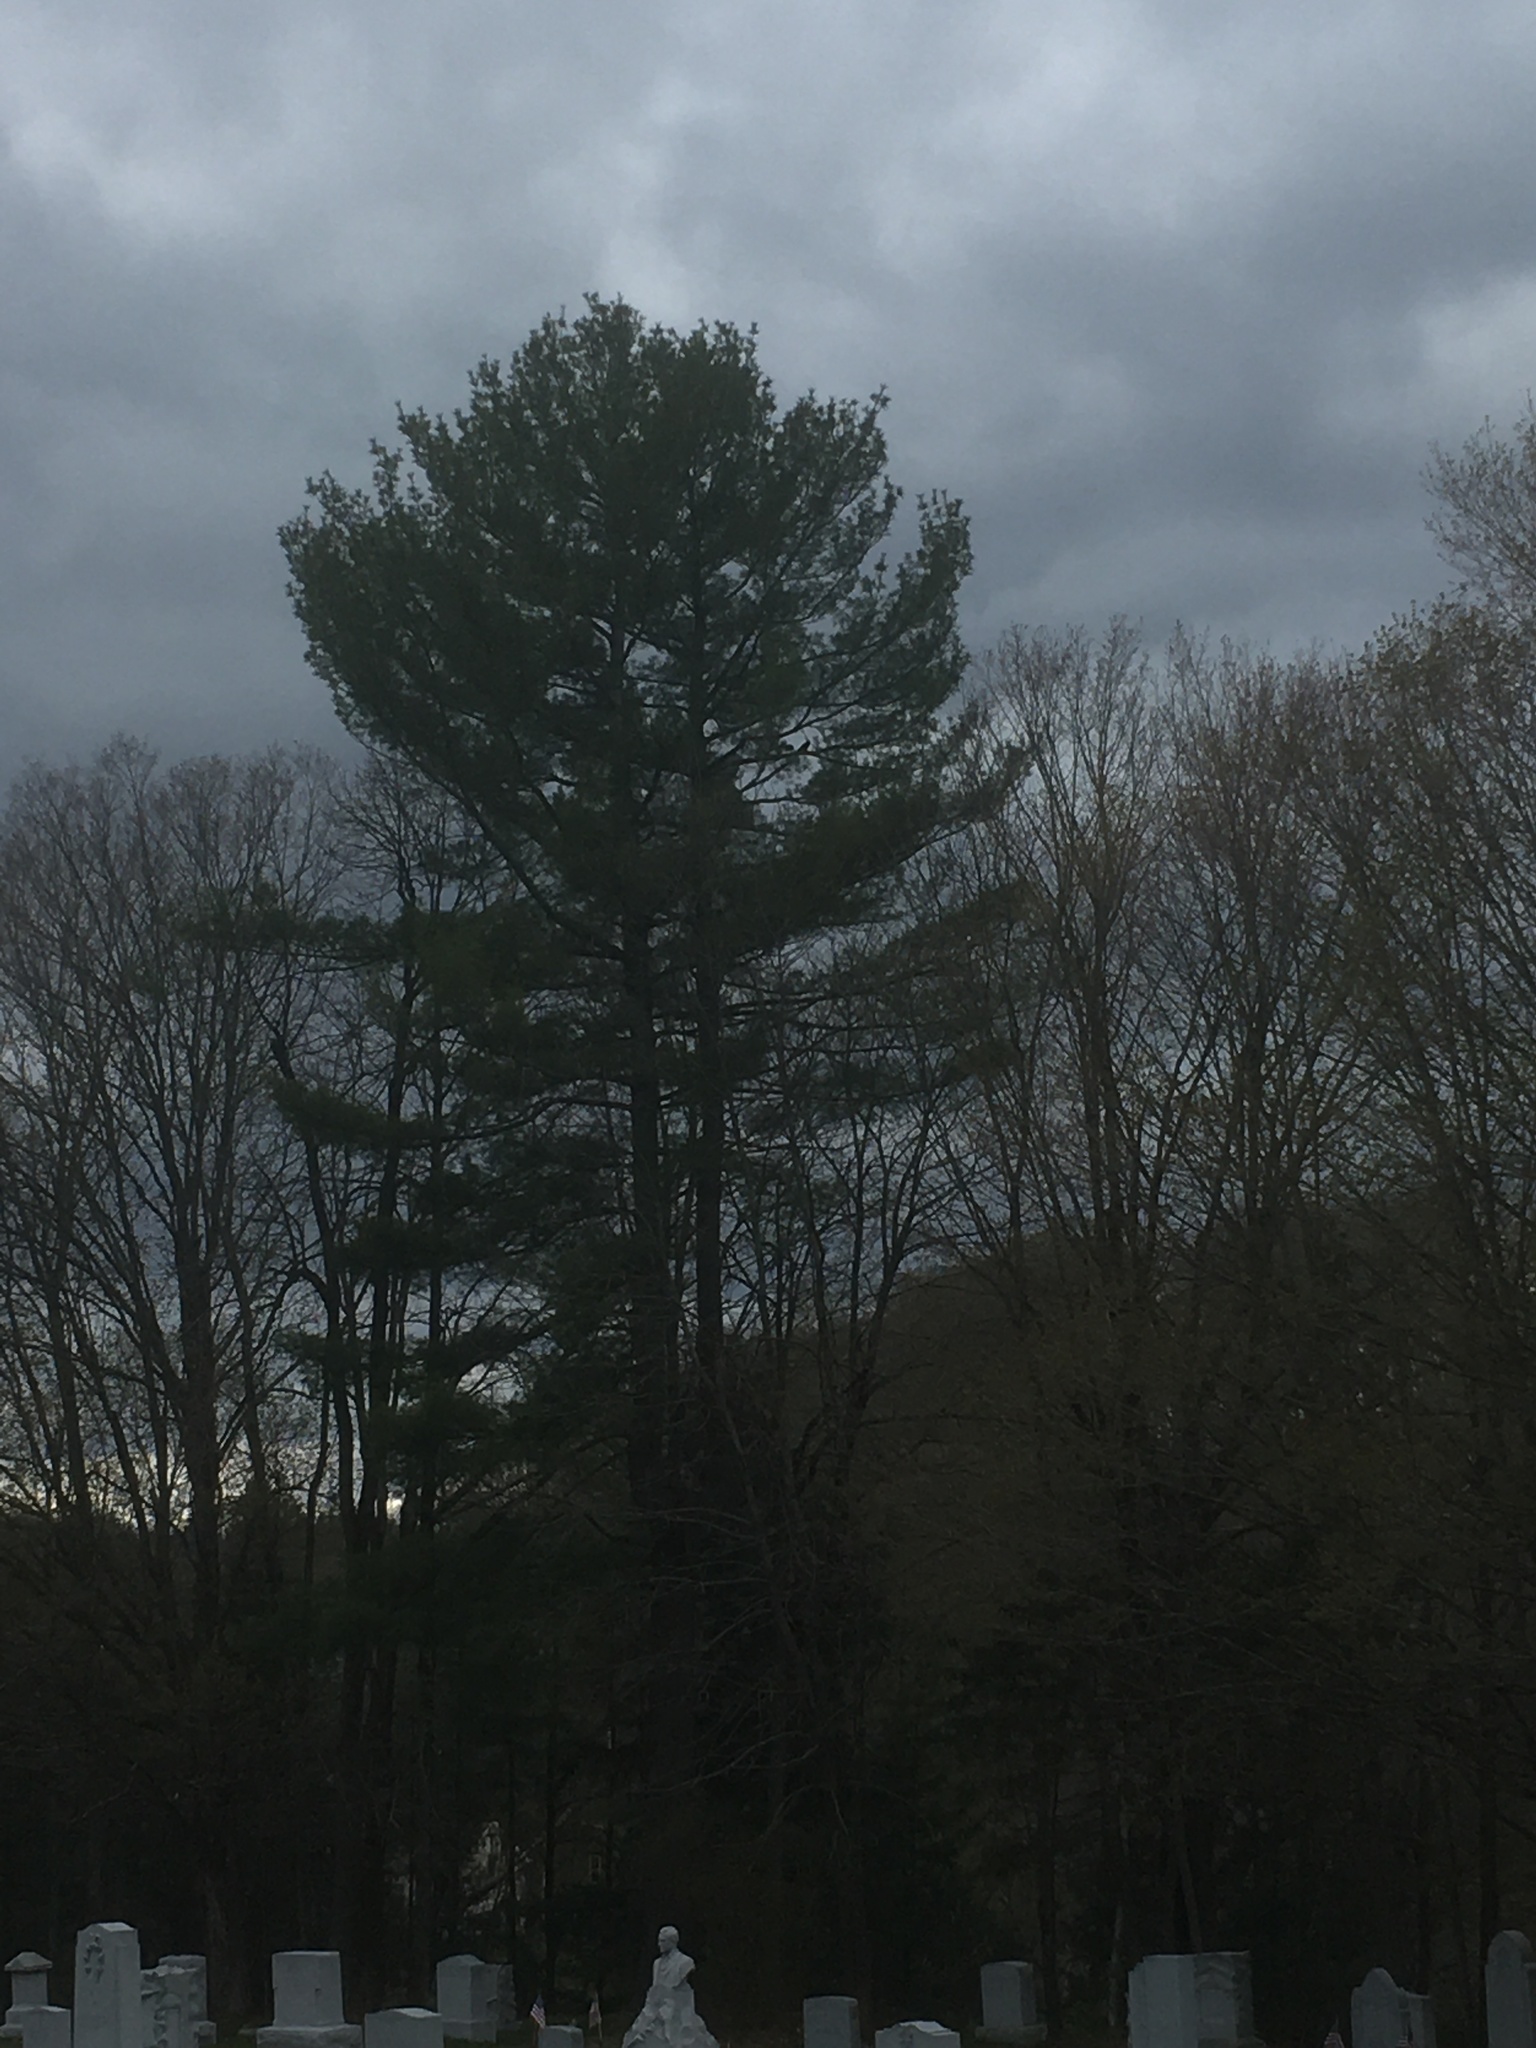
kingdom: Plantae
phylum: Tracheophyta
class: Pinopsida
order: Pinales
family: Pinaceae
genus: Pinus
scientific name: Pinus strobus
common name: Weymouth pine
